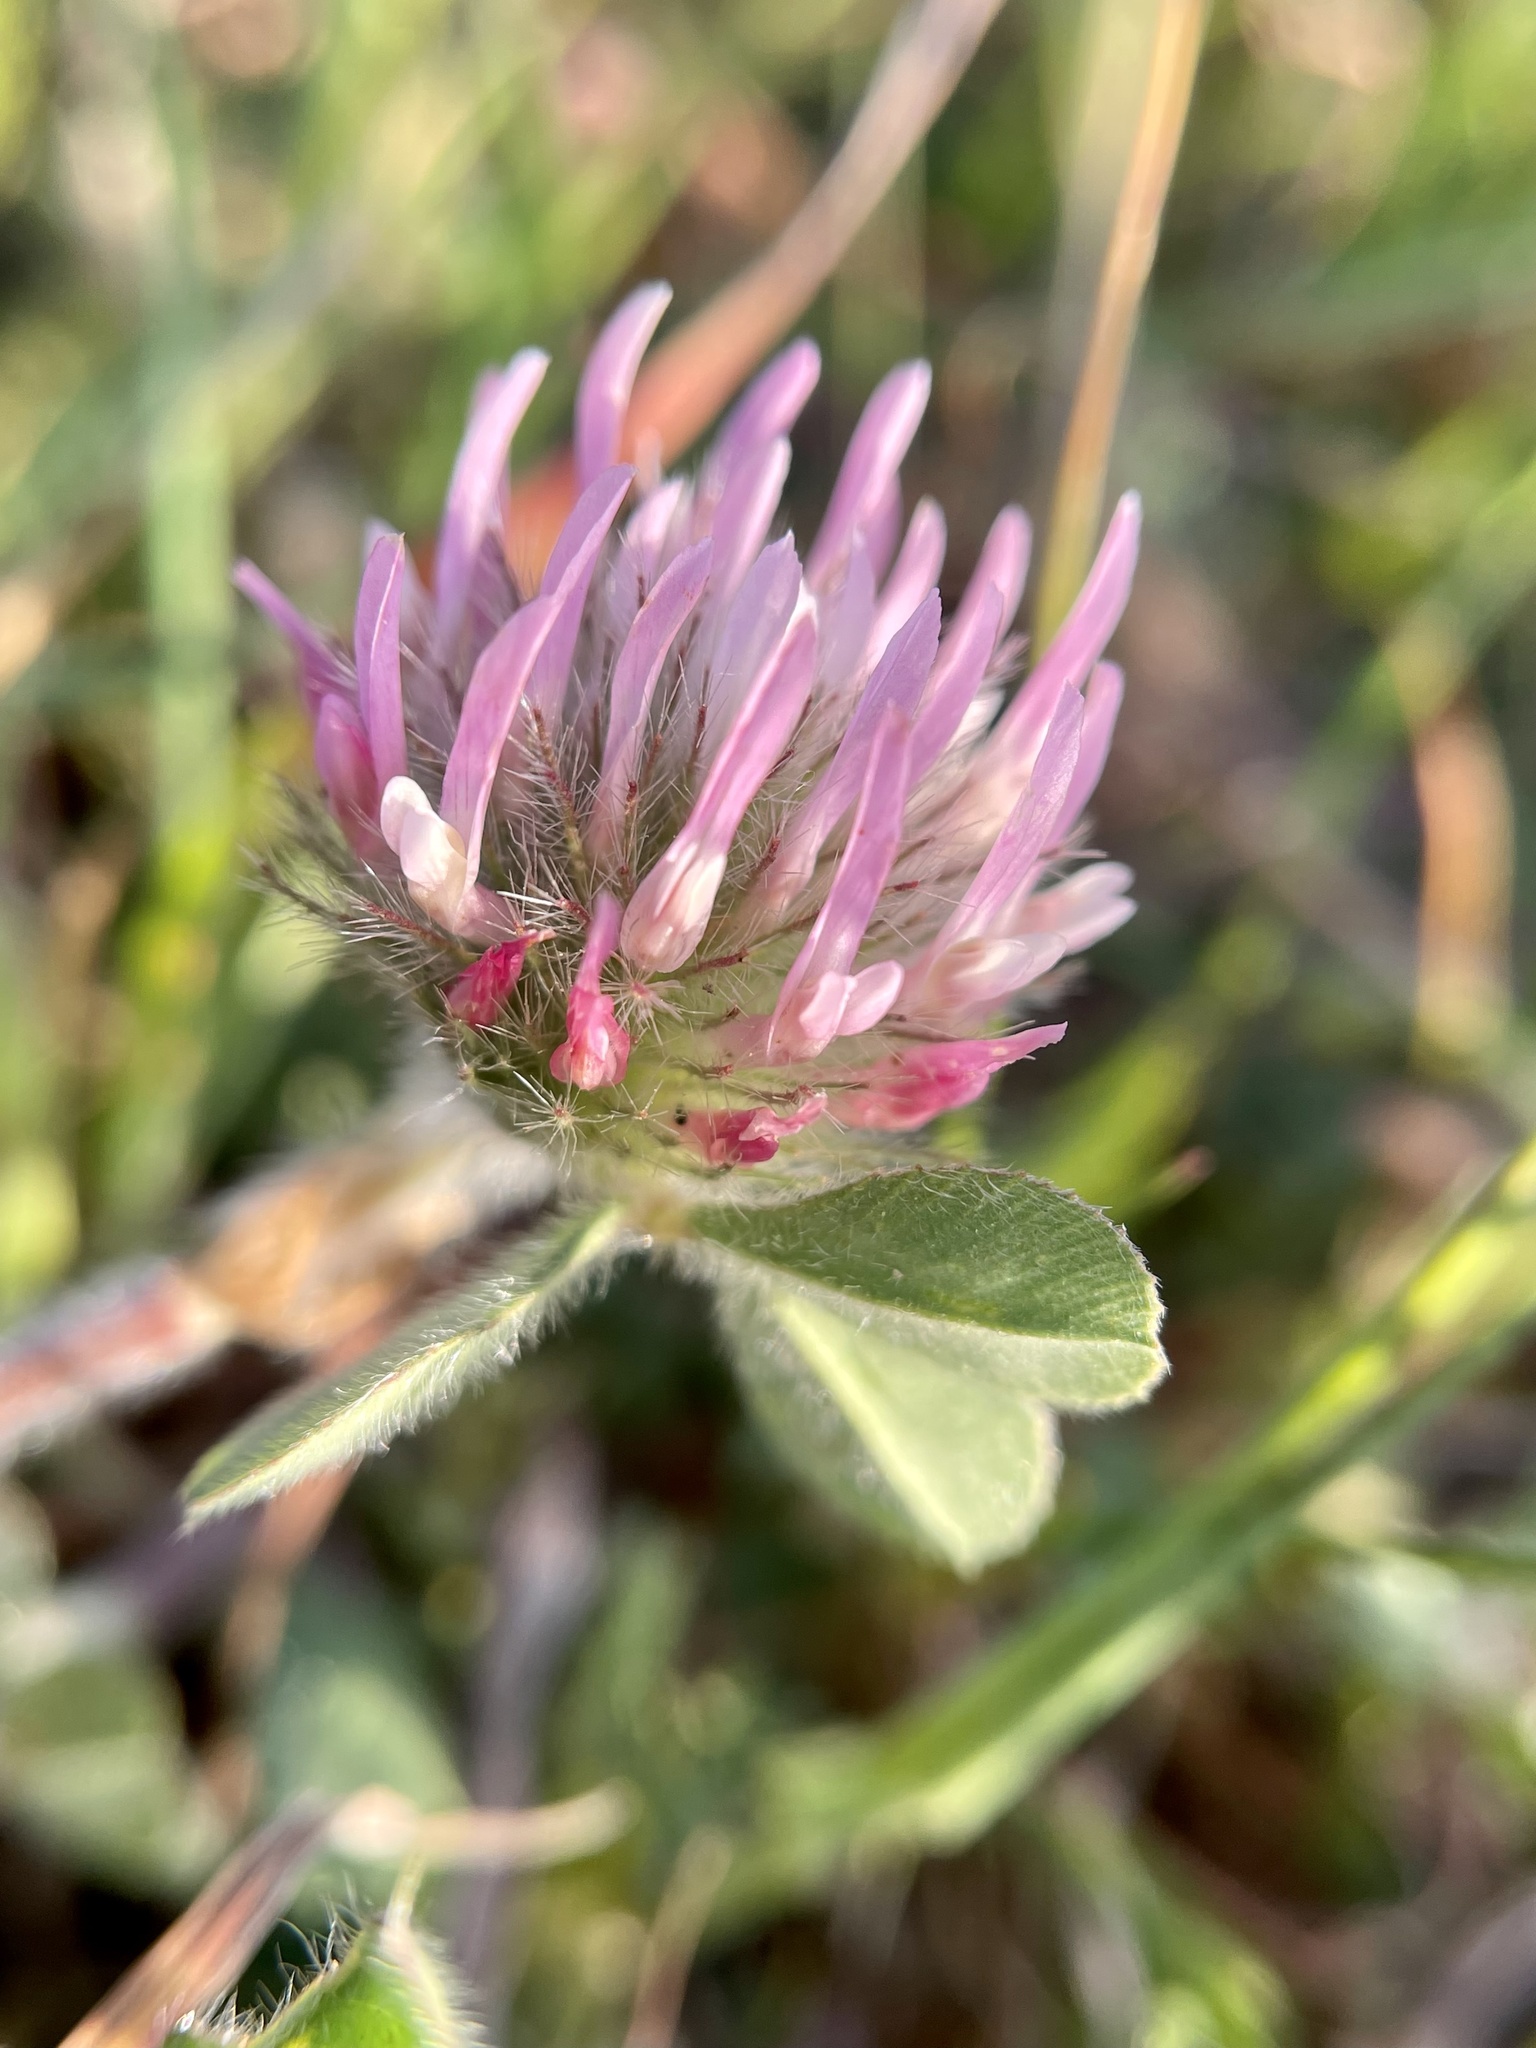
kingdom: Plantae
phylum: Tracheophyta
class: Magnoliopsida
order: Fabales
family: Fabaceae
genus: Trifolium
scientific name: Trifolium hirtum
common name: Rose clover
